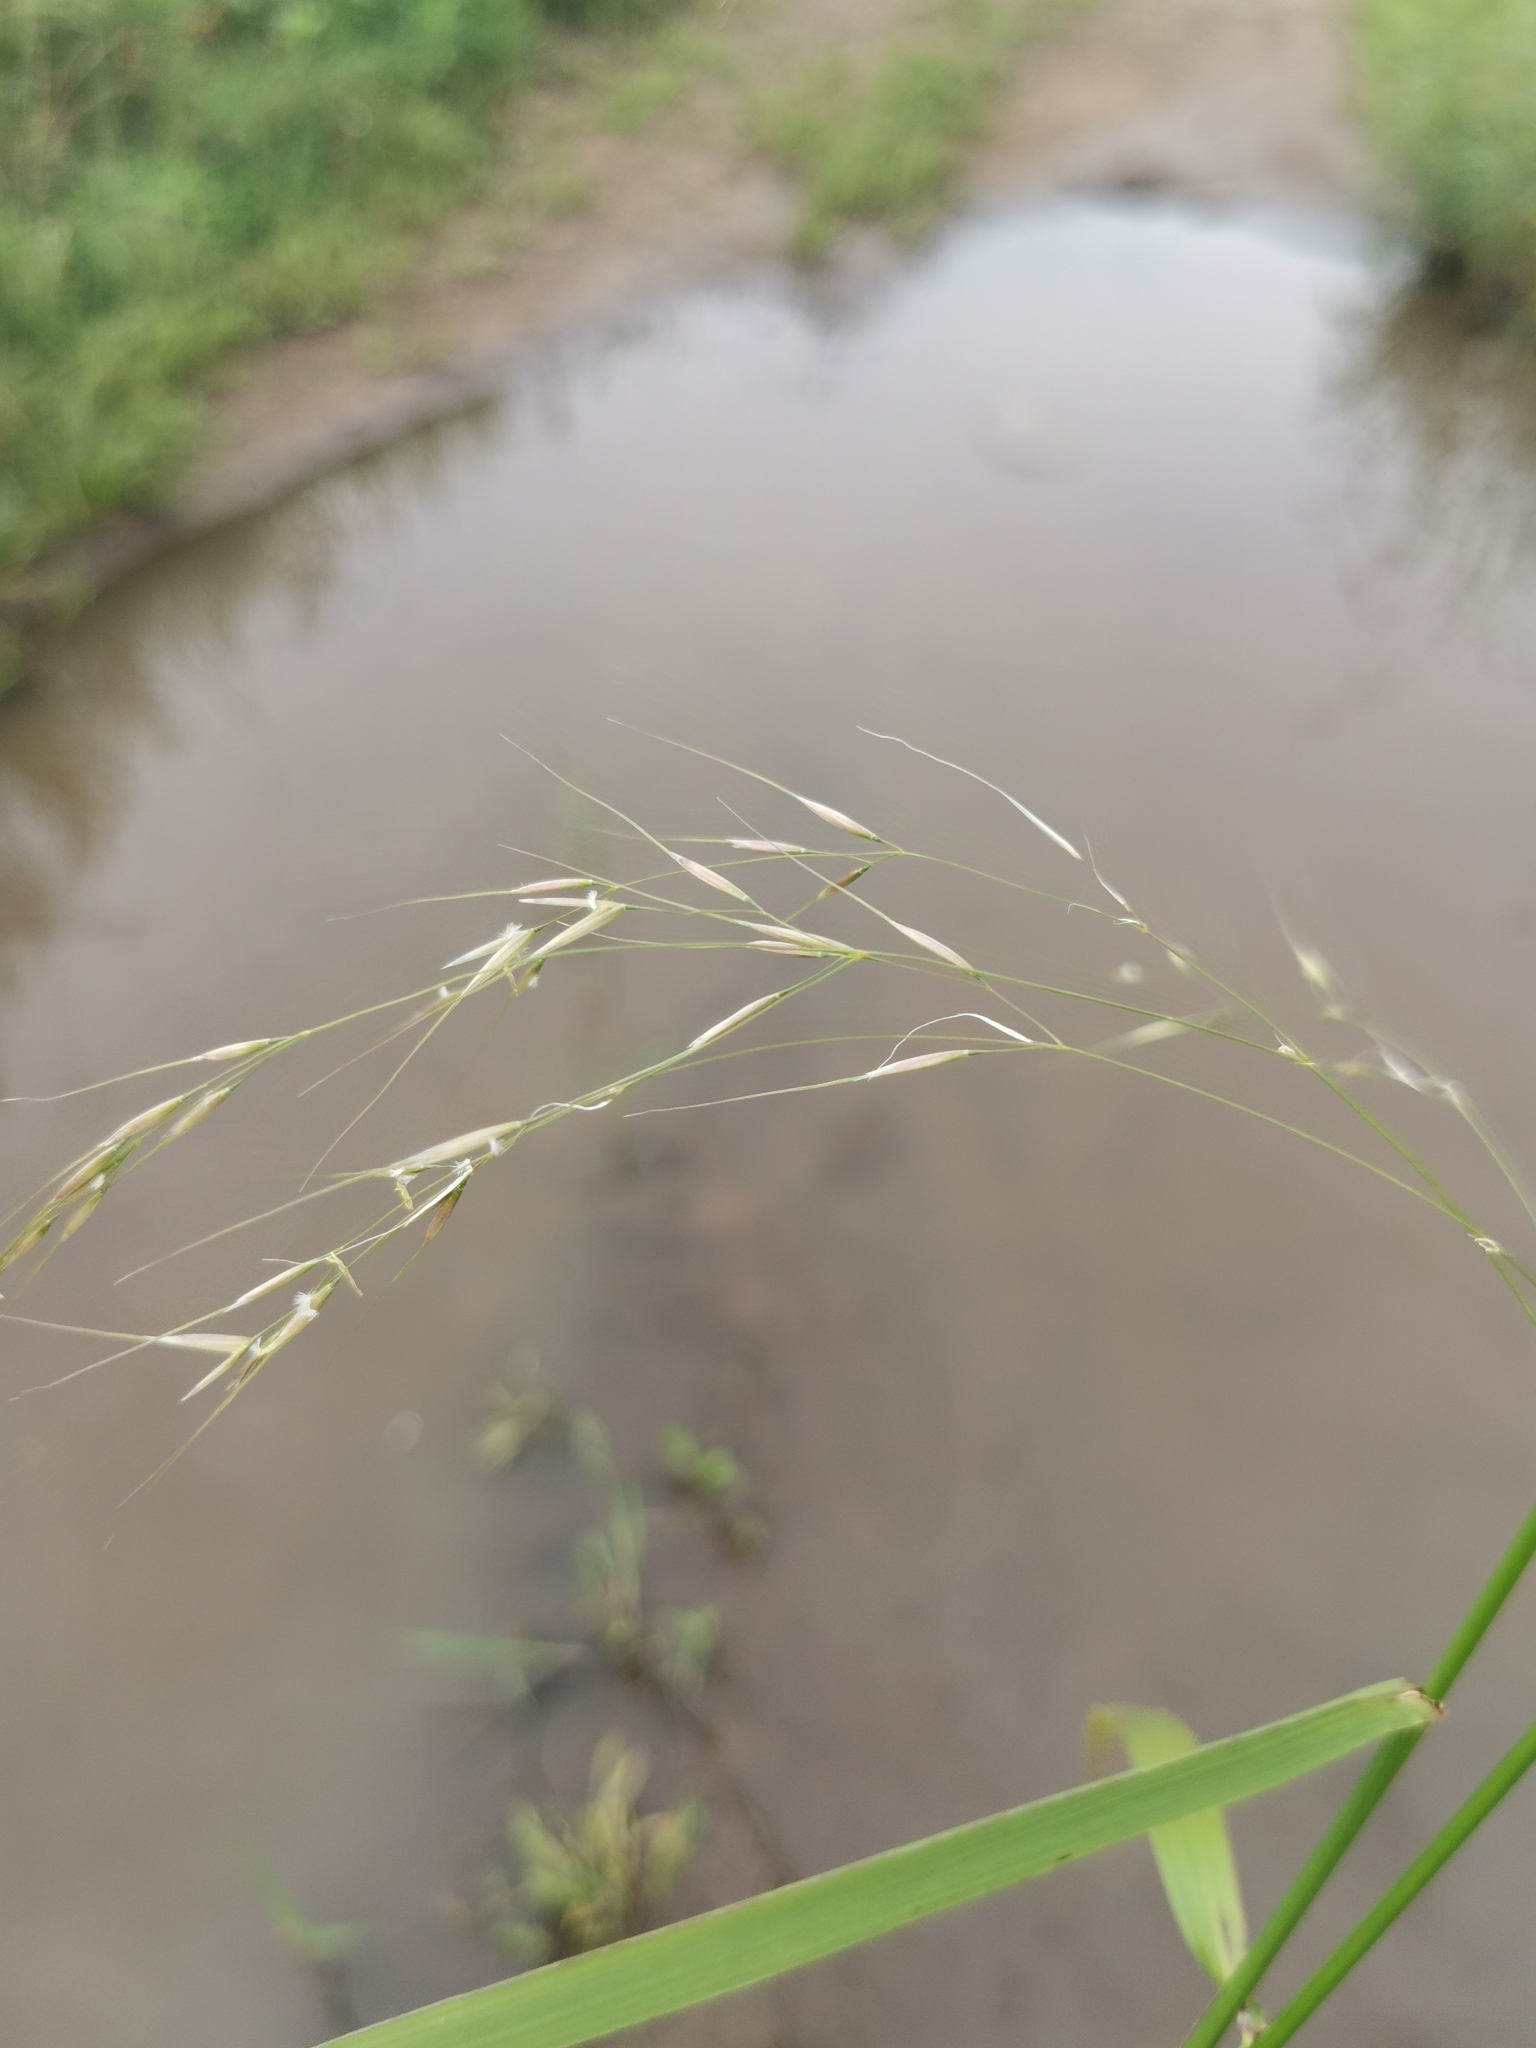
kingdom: Plantae
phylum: Tracheophyta
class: Liliopsida
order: Poales
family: Poaceae
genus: Achnatherum
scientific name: Achnatherum pekinense
